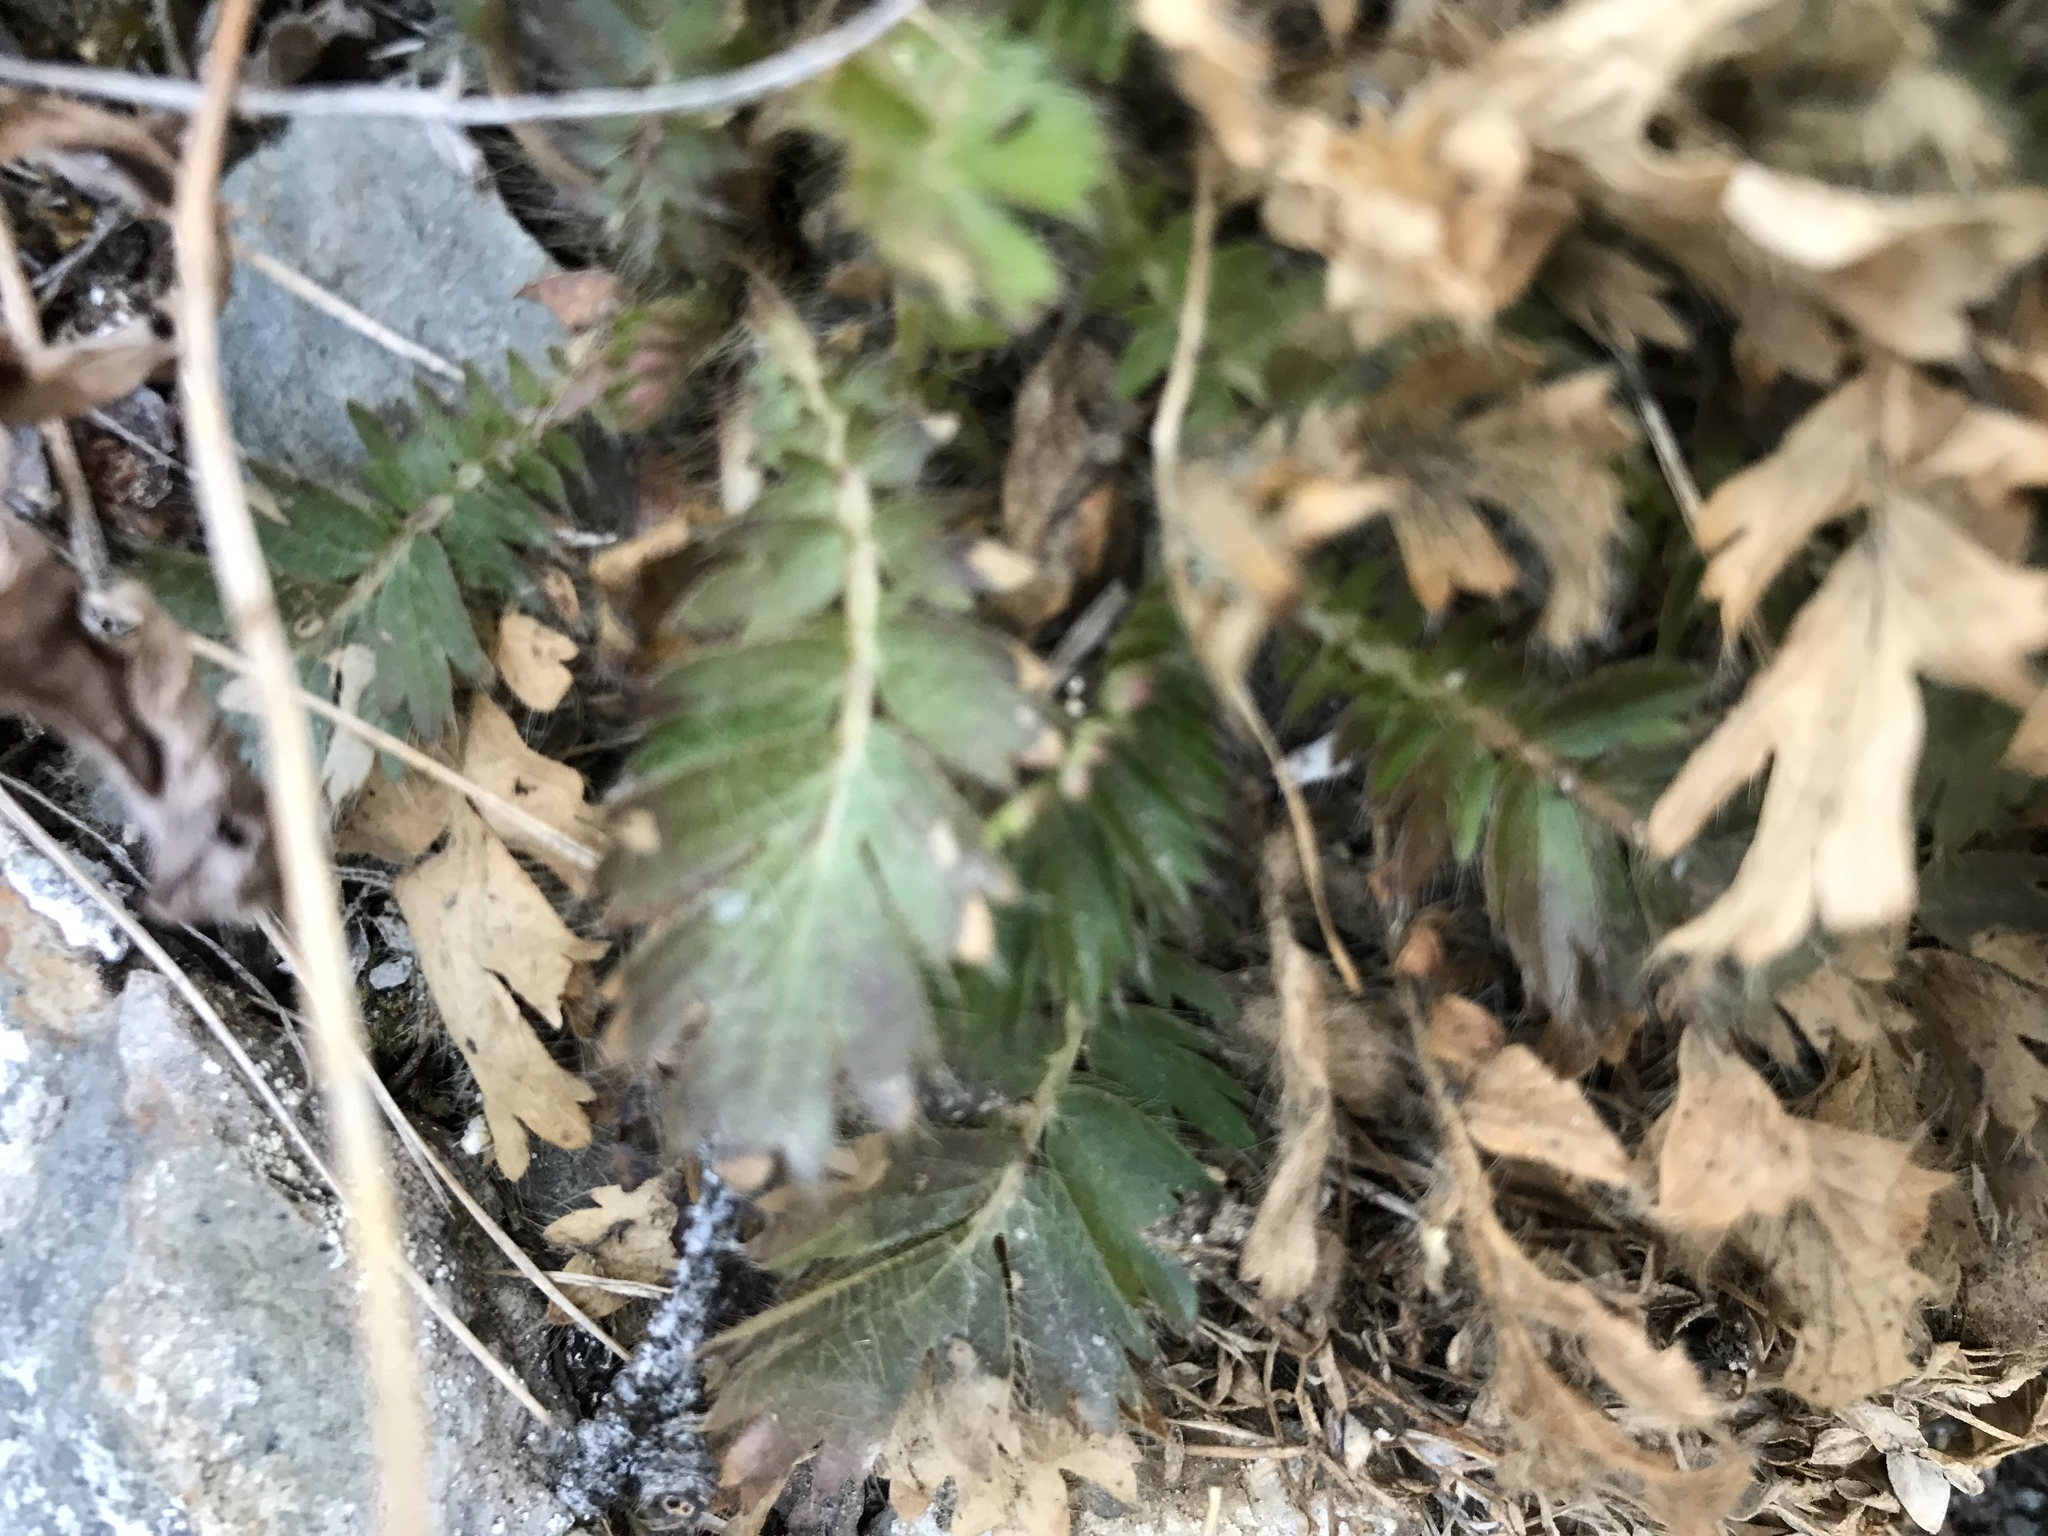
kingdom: Plantae
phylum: Tracheophyta
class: Magnoliopsida
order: Rosales
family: Rosaceae
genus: Geum
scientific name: Geum triflorum
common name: Old man's whiskers
